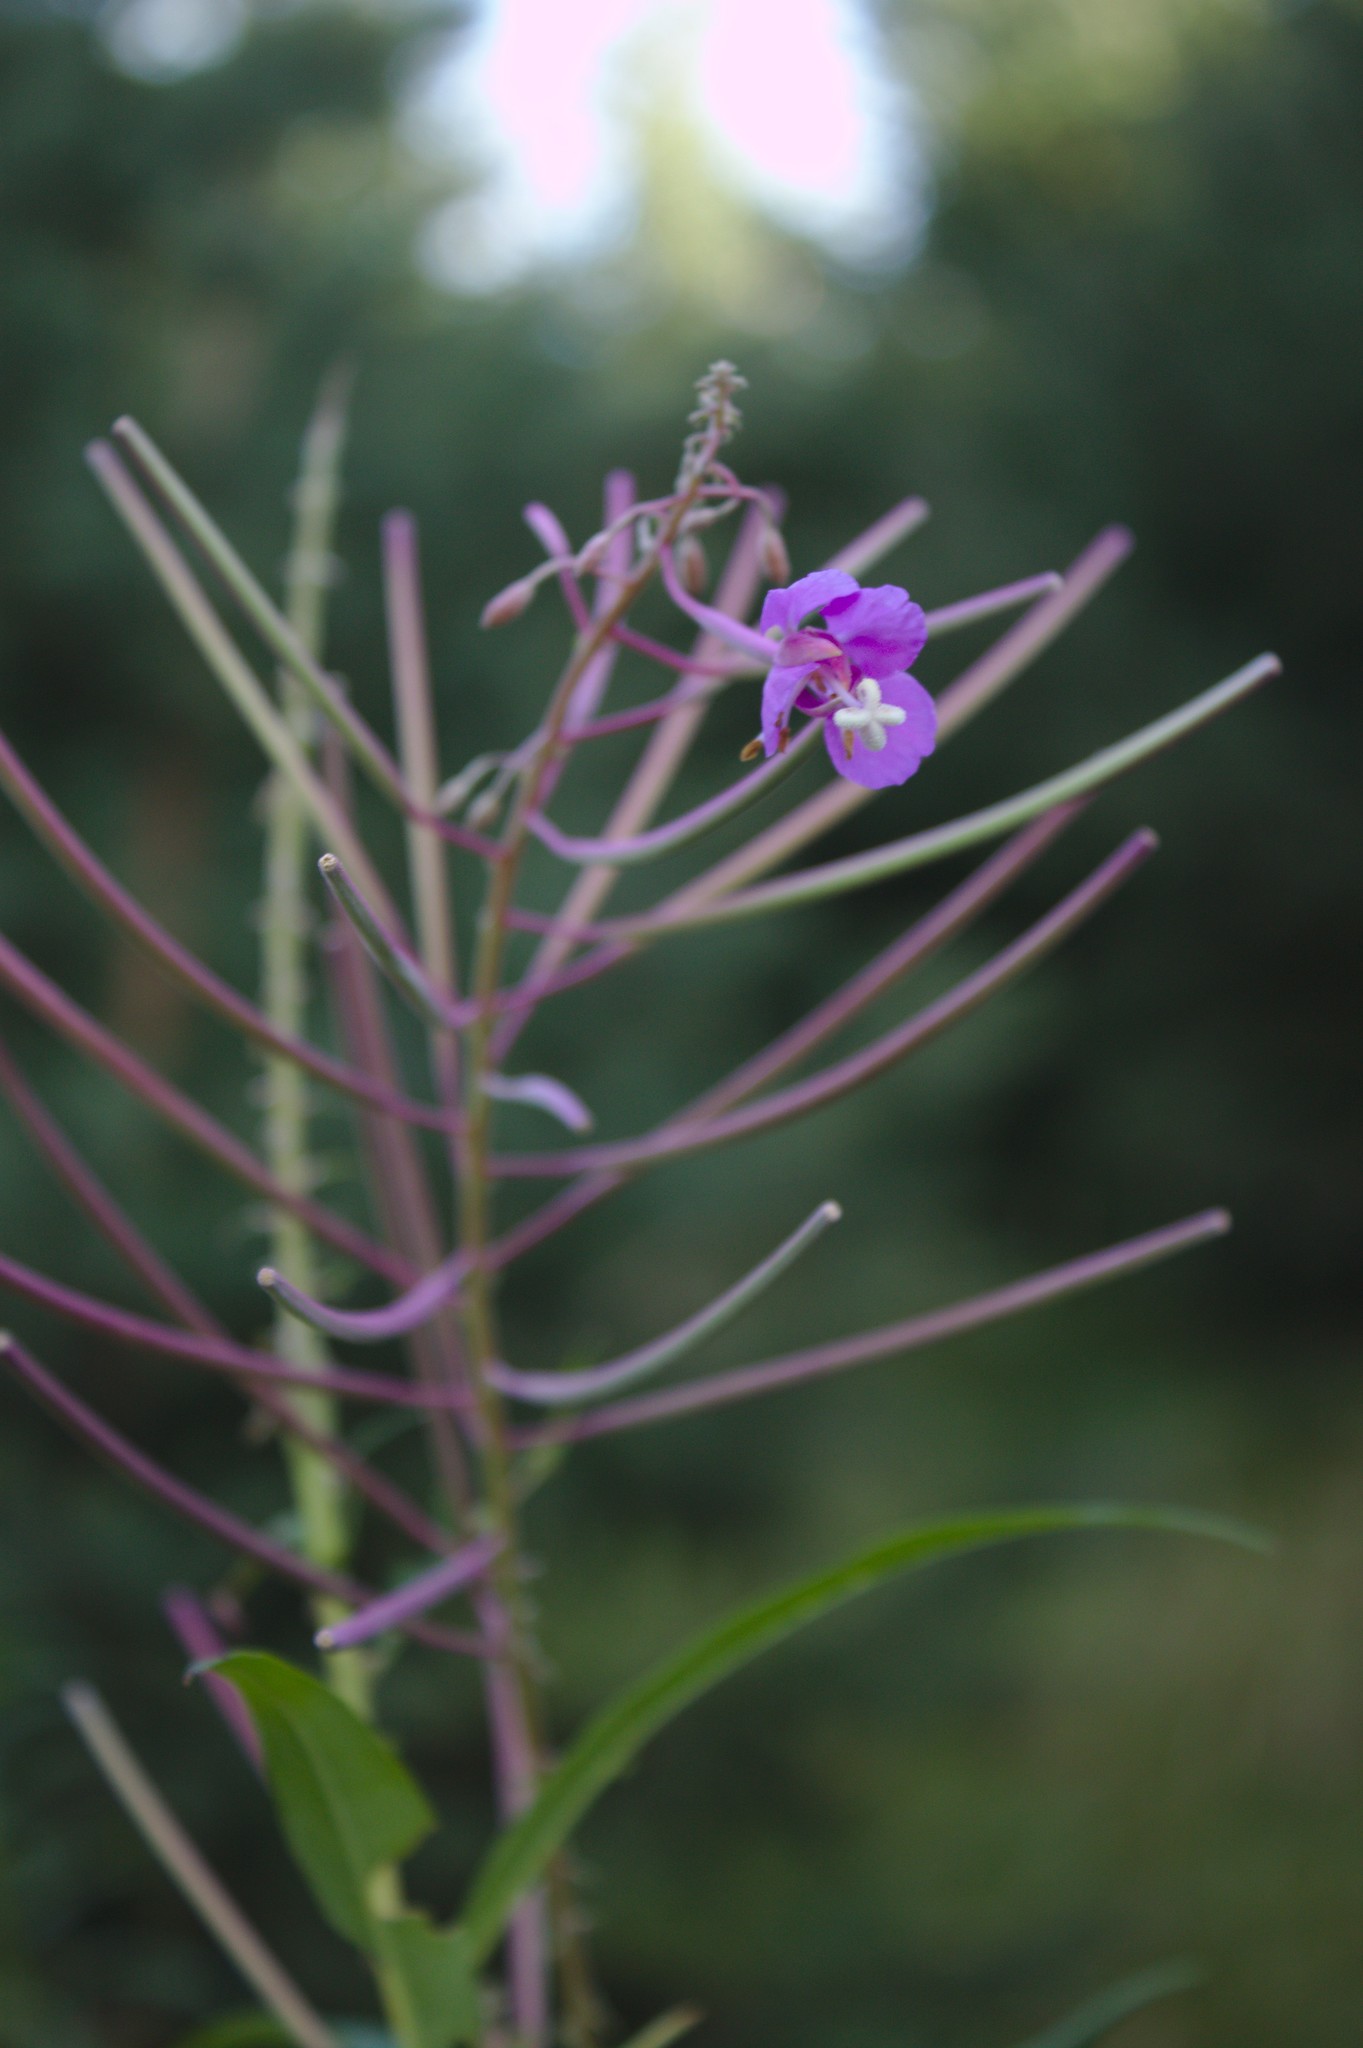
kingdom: Plantae
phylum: Tracheophyta
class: Magnoliopsida
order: Myrtales
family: Onagraceae
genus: Chamaenerion
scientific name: Chamaenerion angustifolium
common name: Fireweed
